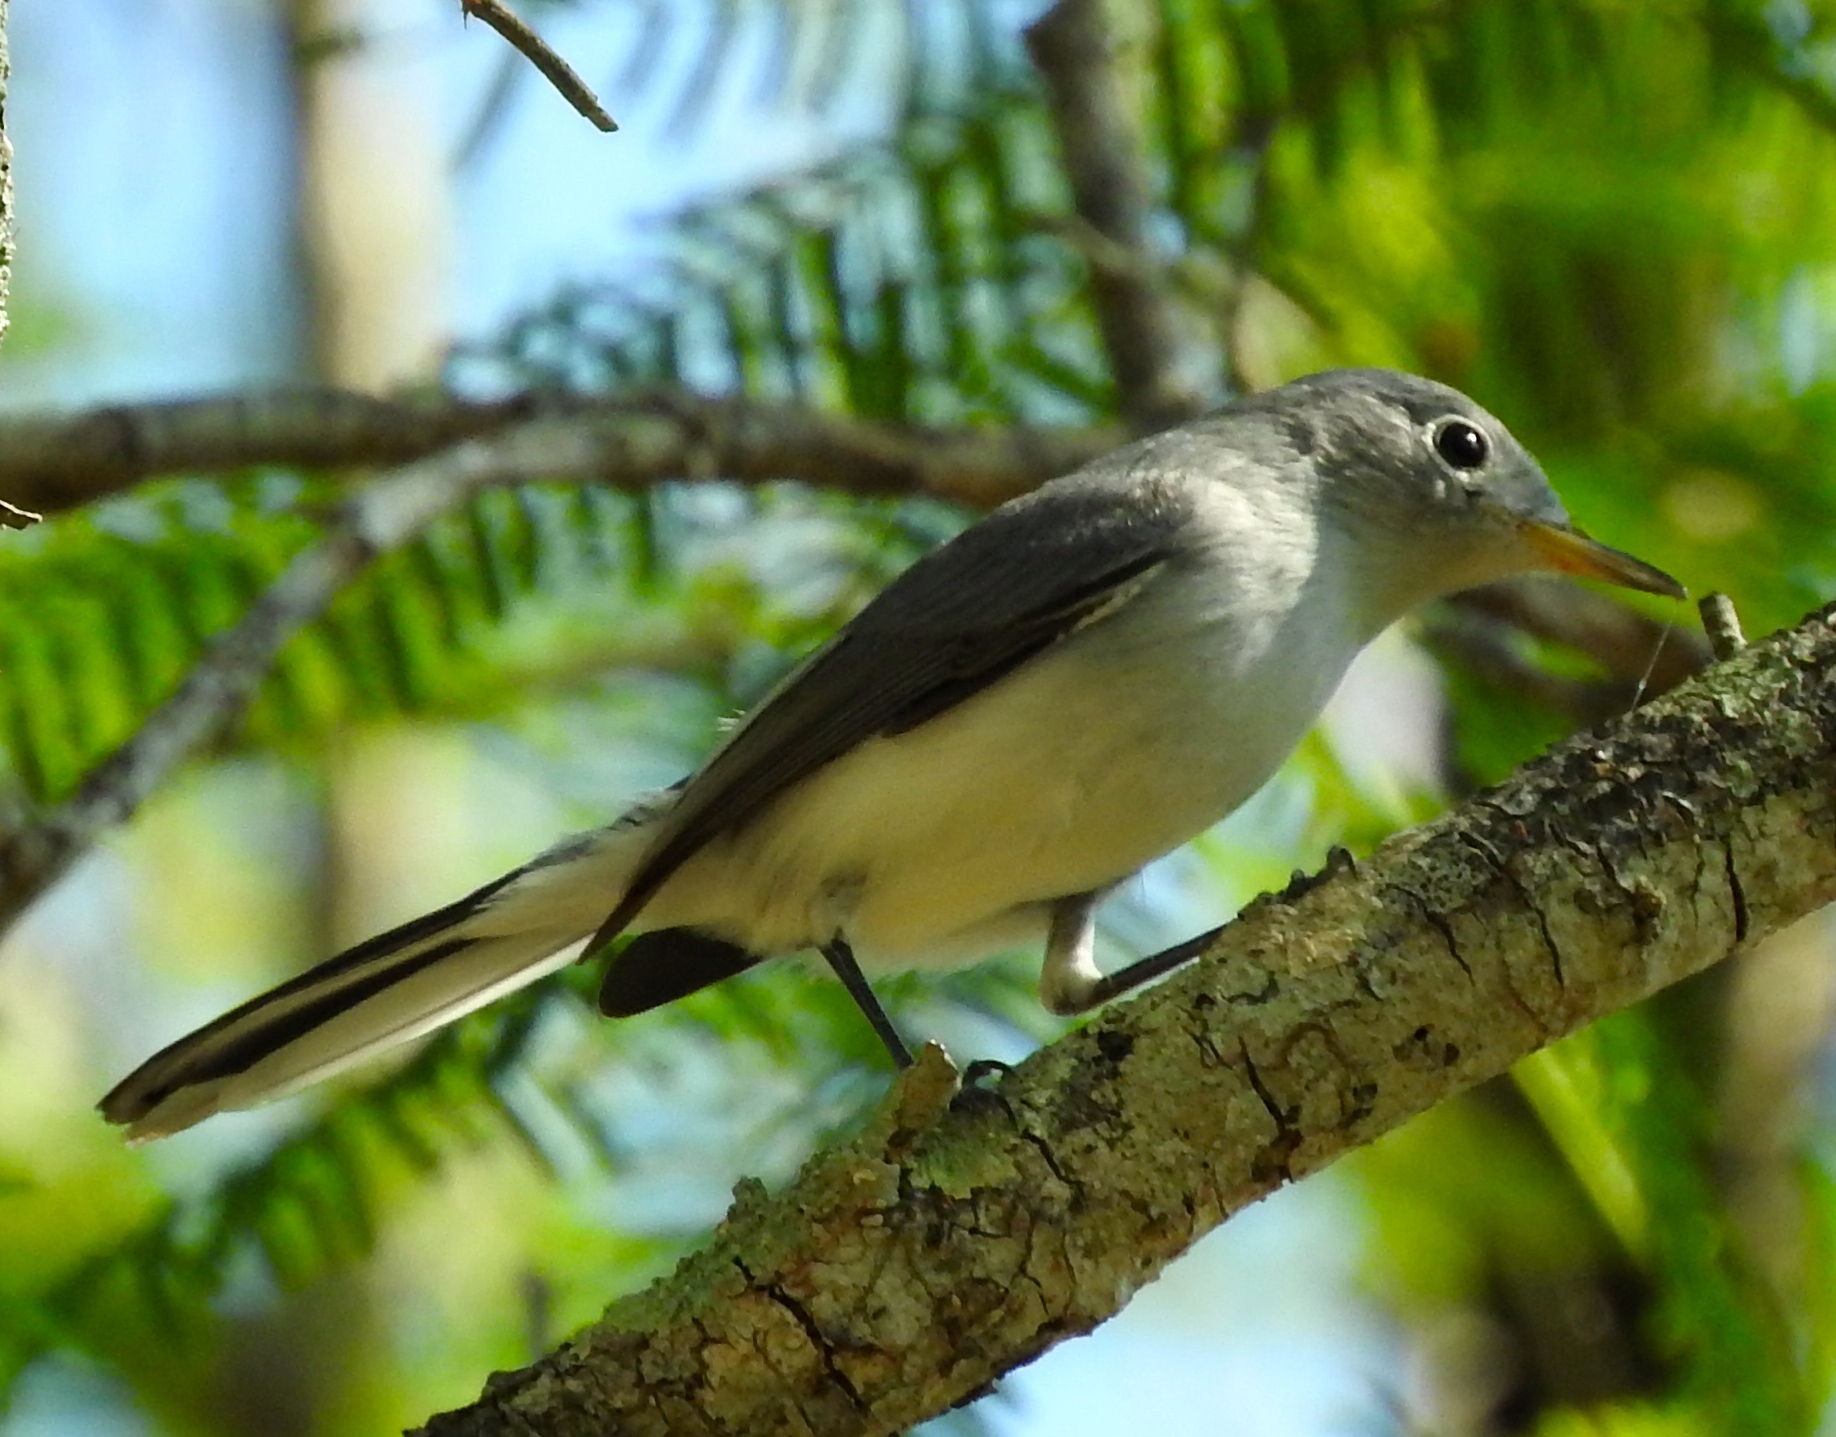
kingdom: Animalia
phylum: Chordata
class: Aves
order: Passeriformes
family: Polioptilidae
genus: Polioptila
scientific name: Polioptila caerulea
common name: Blue-gray gnatcatcher
